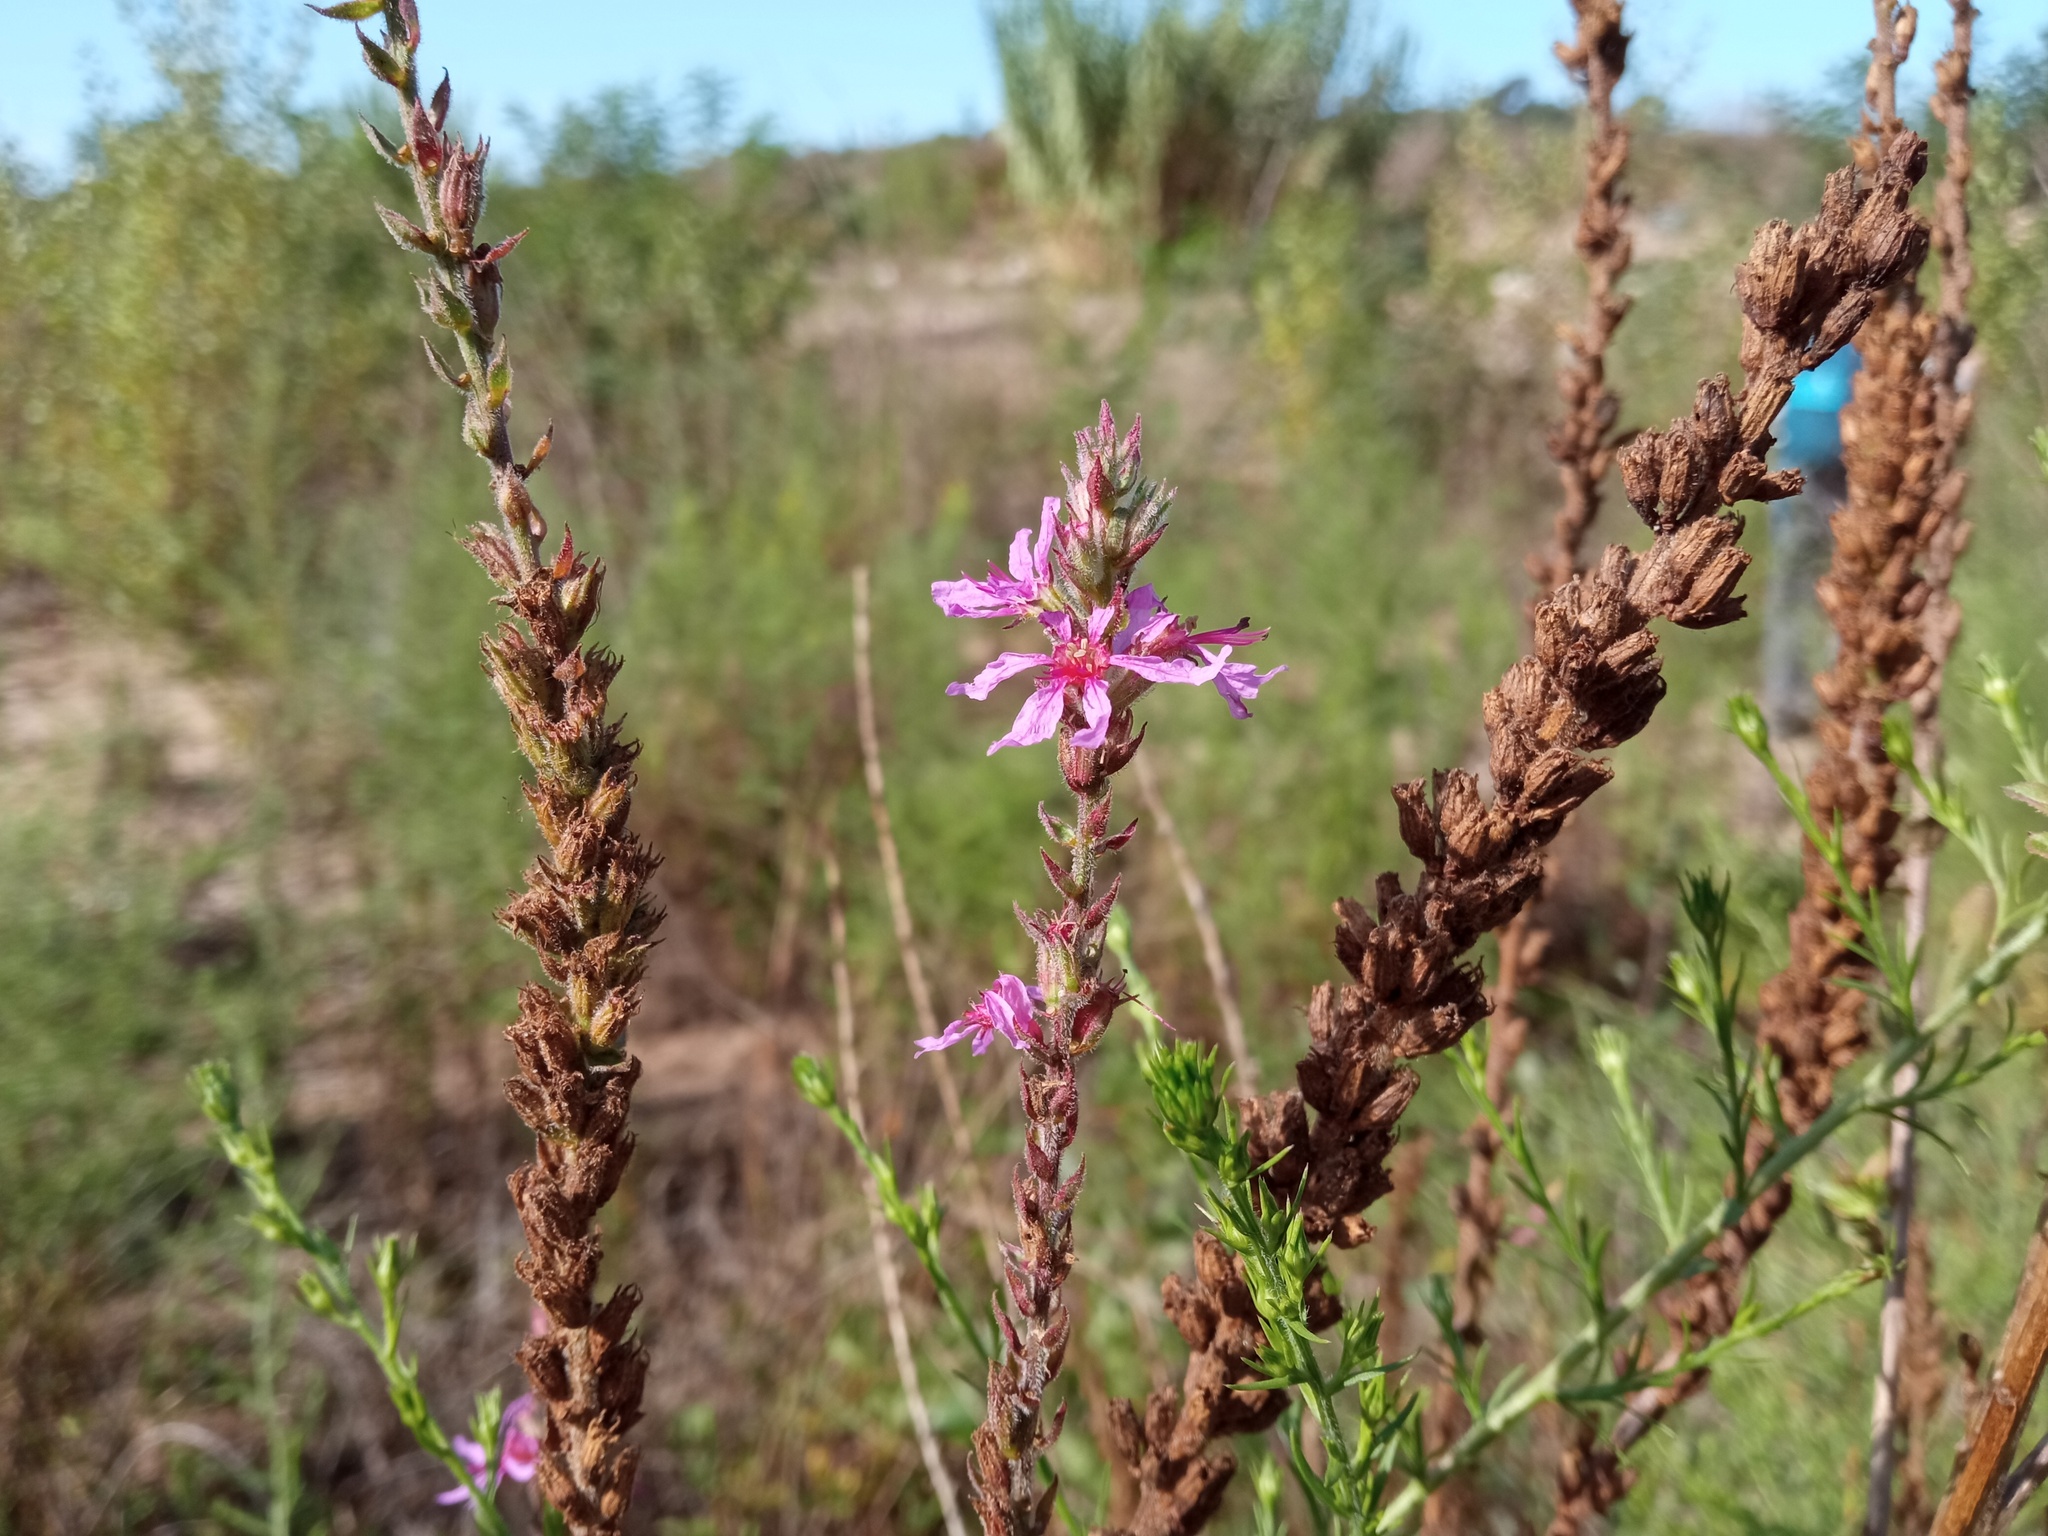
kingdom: Plantae
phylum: Tracheophyta
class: Magnoliopsida
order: Myrtales
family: Lythraceae
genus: Lythrum
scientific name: Lythrum salicaria
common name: Purple loosestrife
